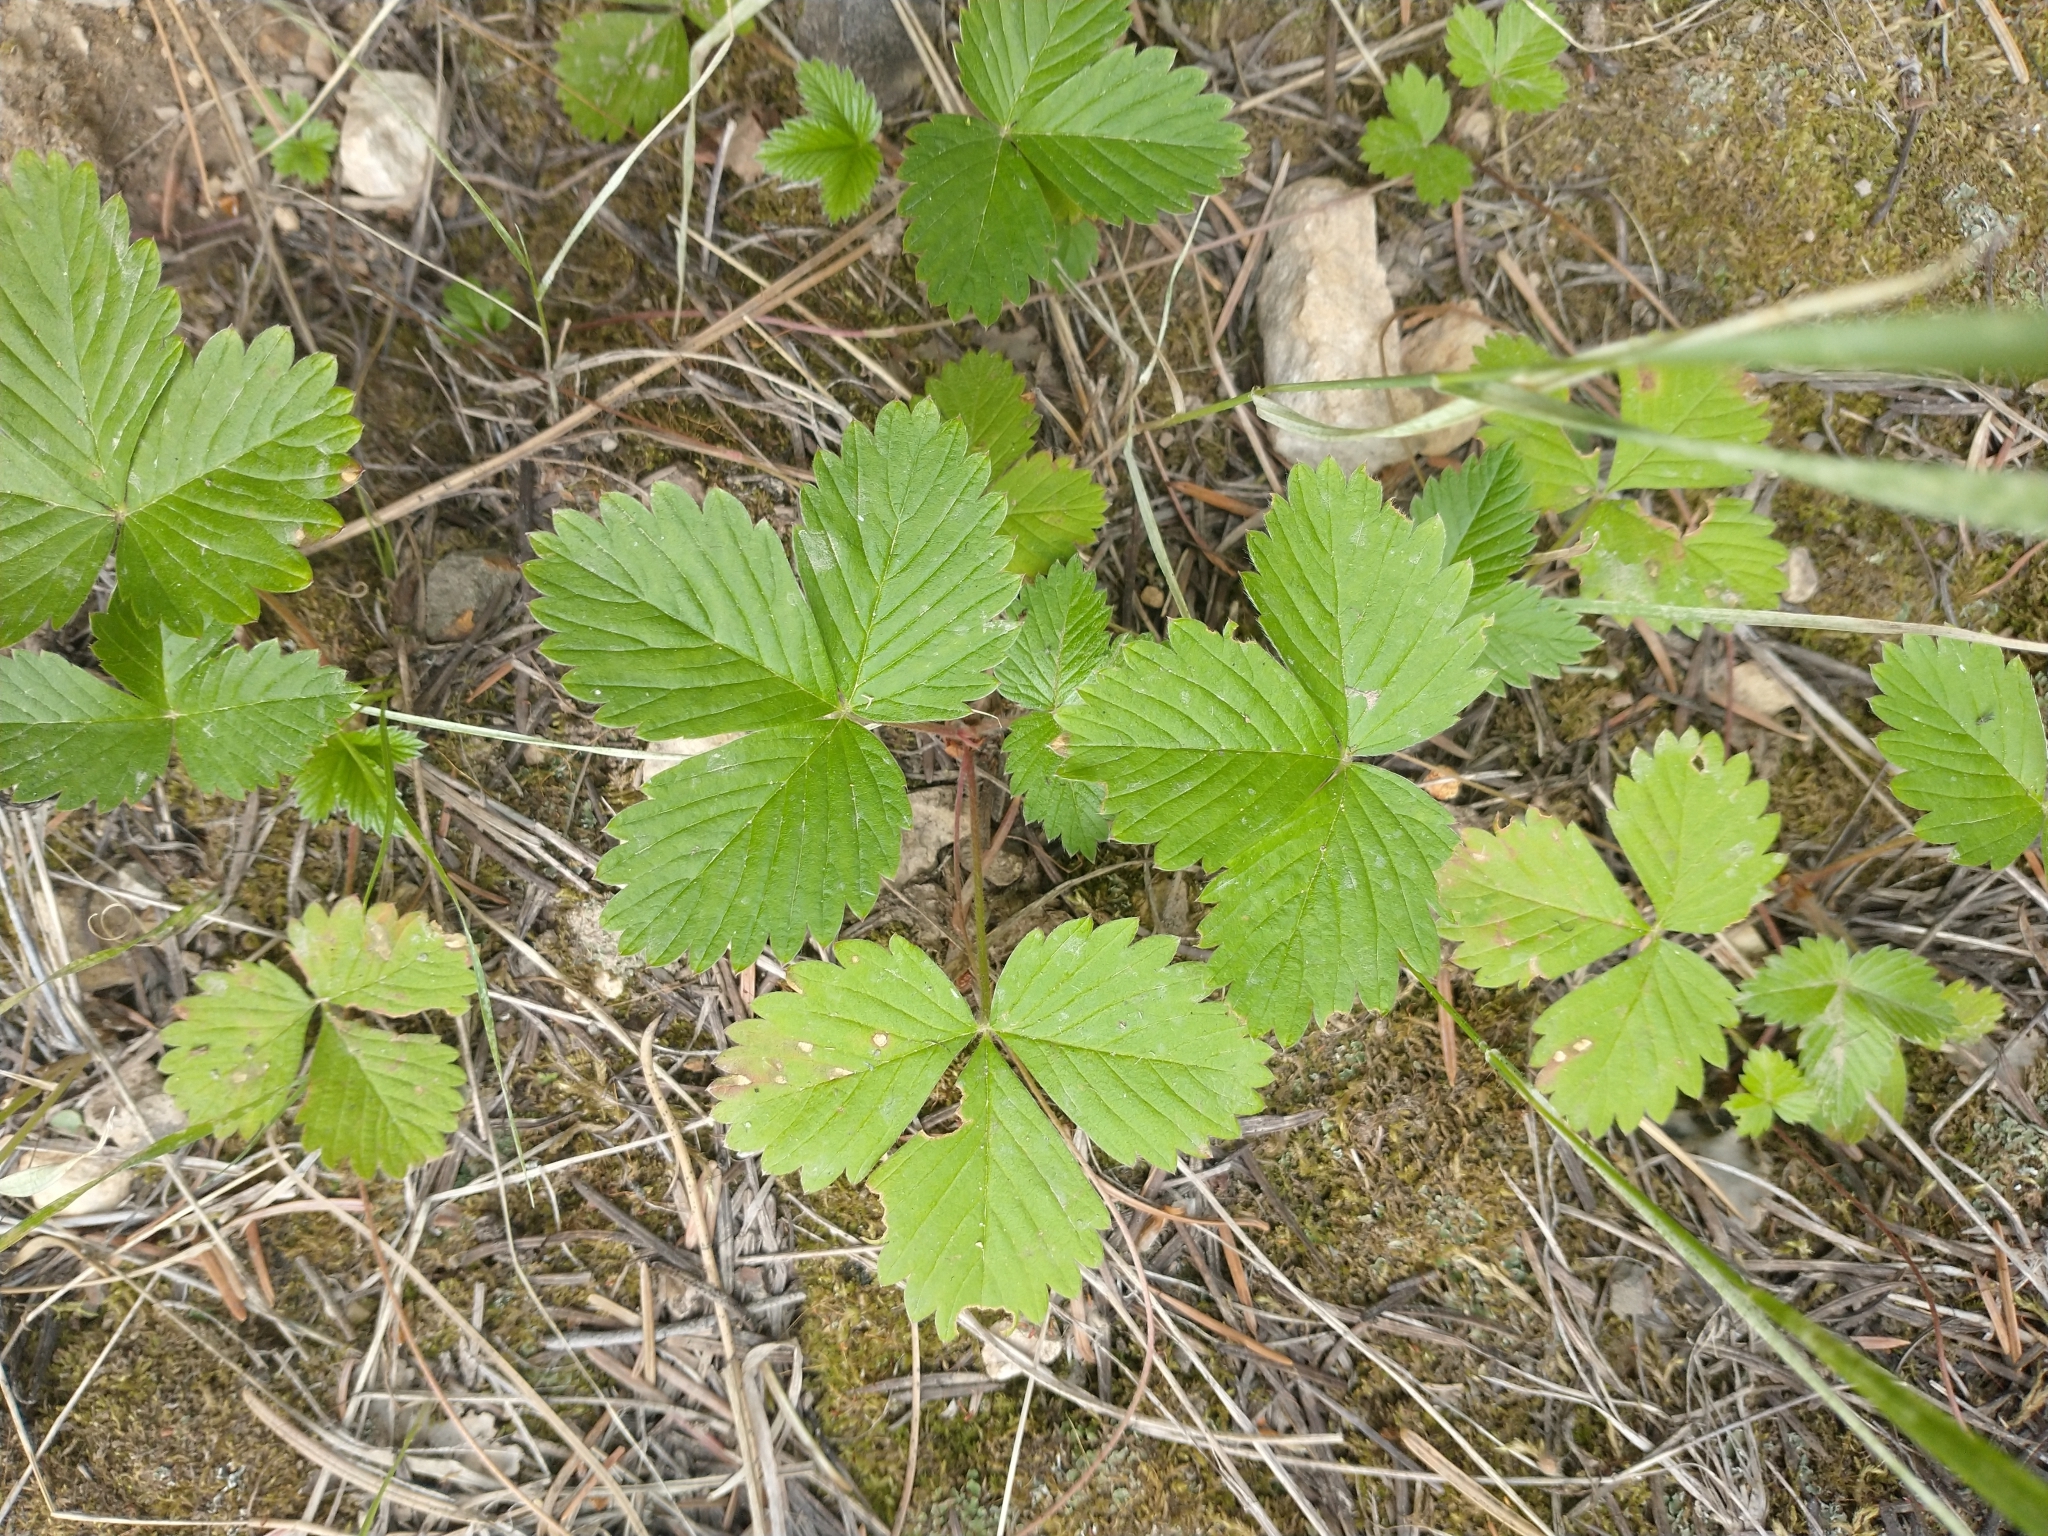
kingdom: Plantae
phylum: Tracheophyta
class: Magnoliopsida
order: Rosales
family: Rosaceae
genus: Fragaria
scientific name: Fragaria vesca
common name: Wild strawberry
